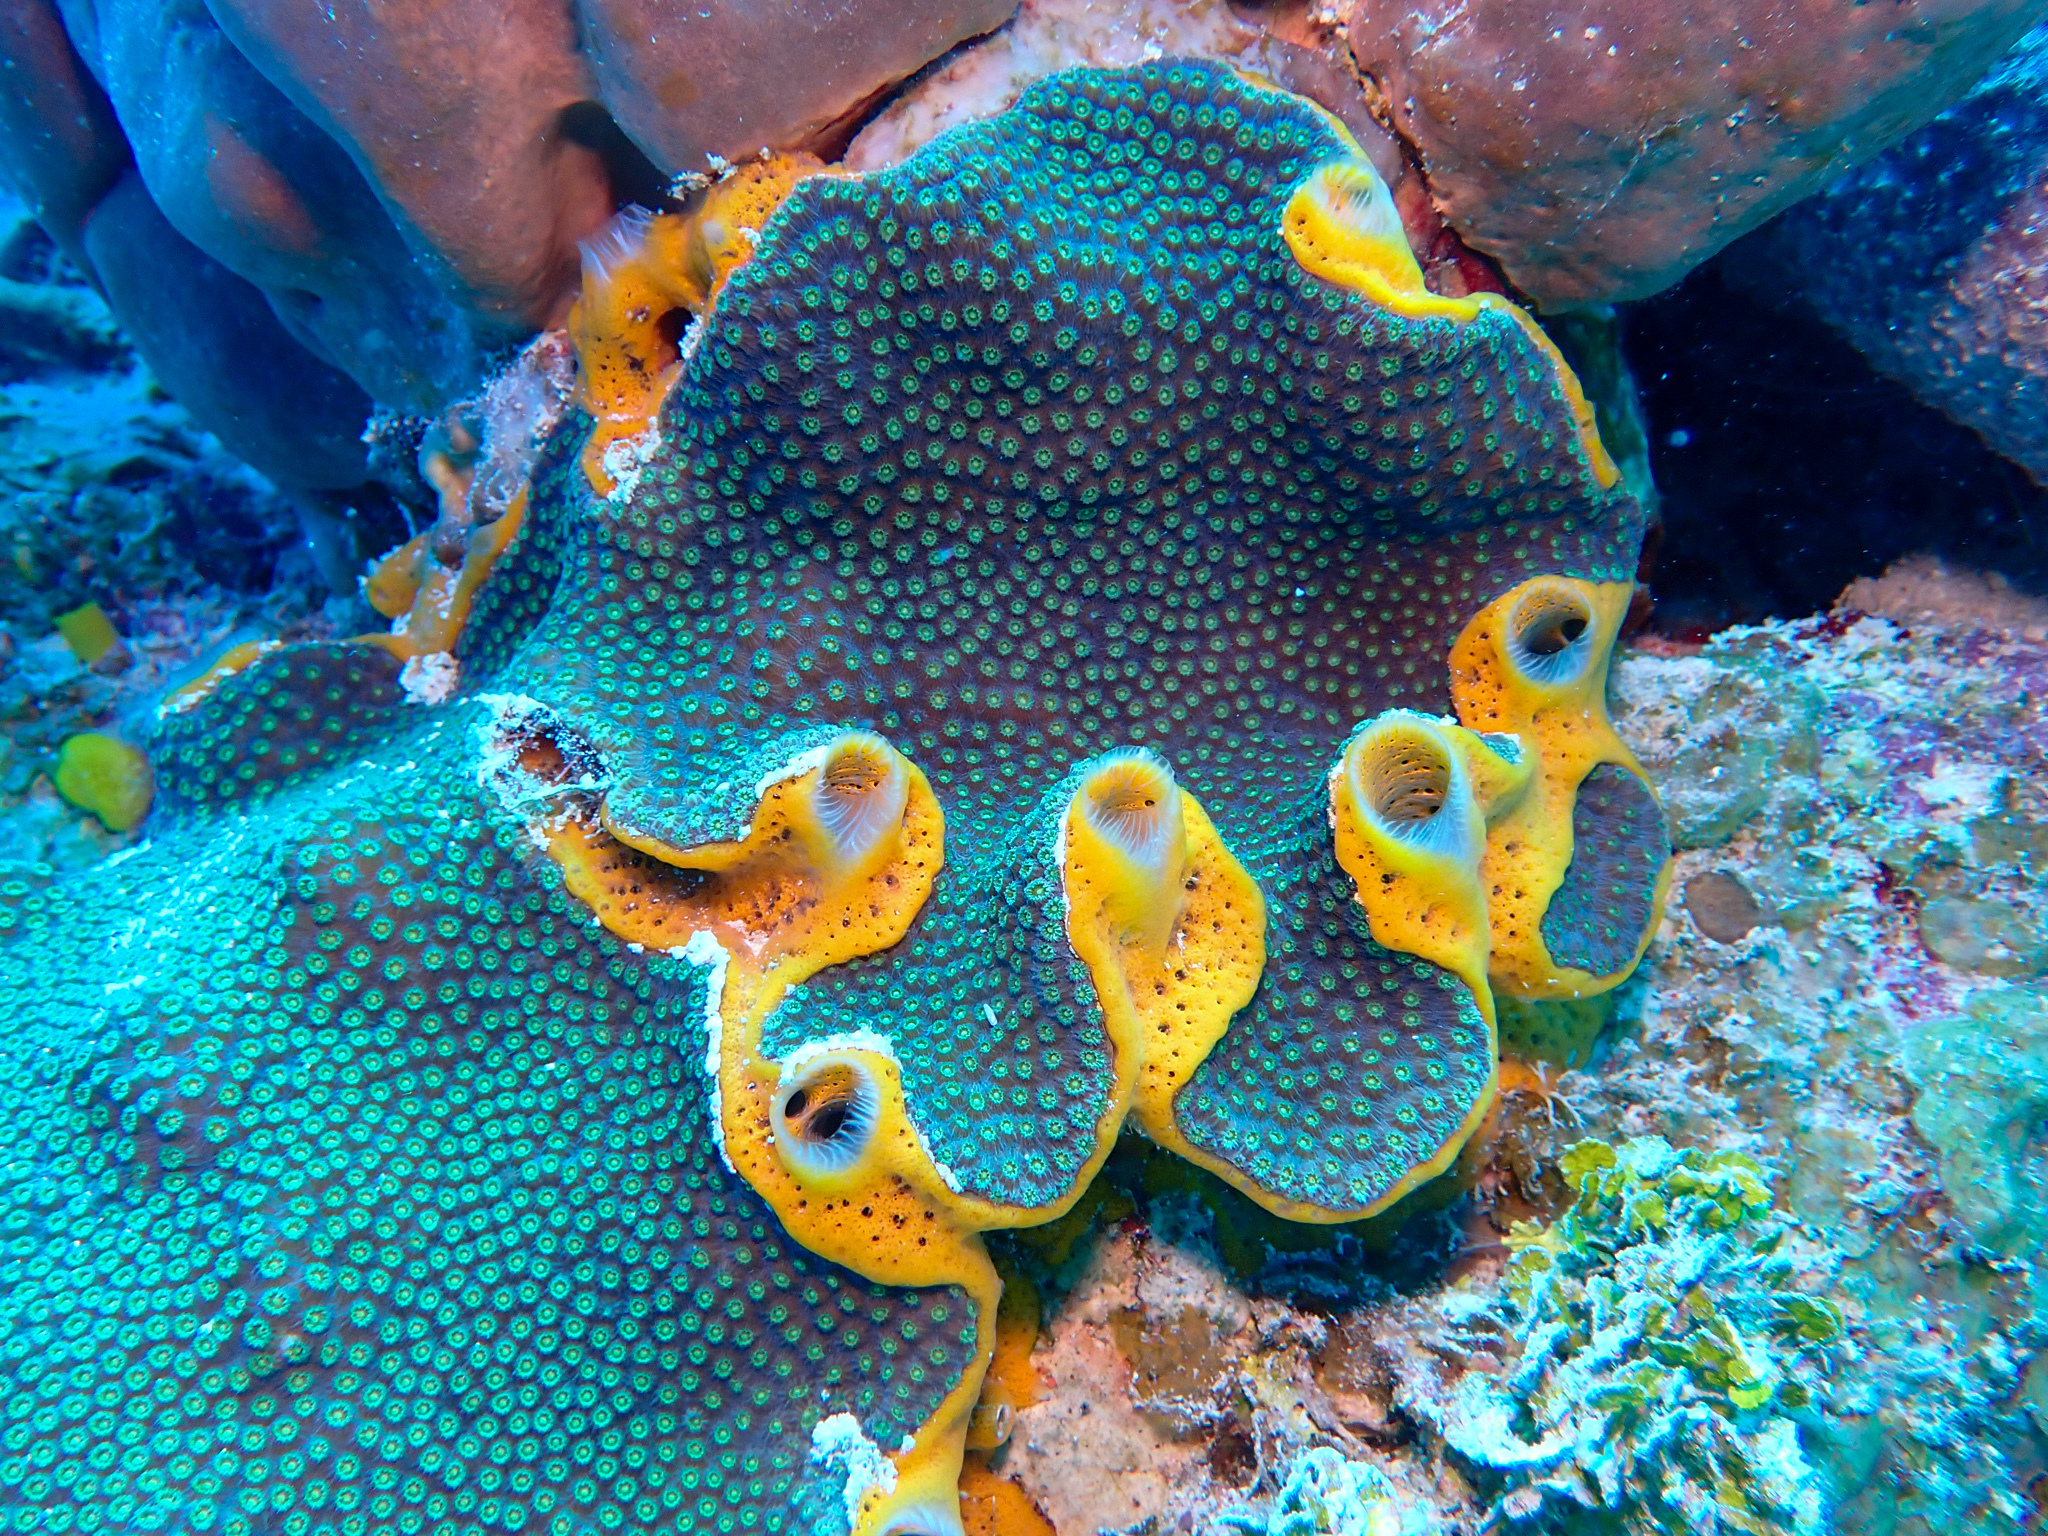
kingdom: Animalia
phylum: Porifera
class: Demospongiae
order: Poecilosclerida
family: Mycalidae
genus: Mycale
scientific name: Mycale laevis
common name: Orange icing sponge
